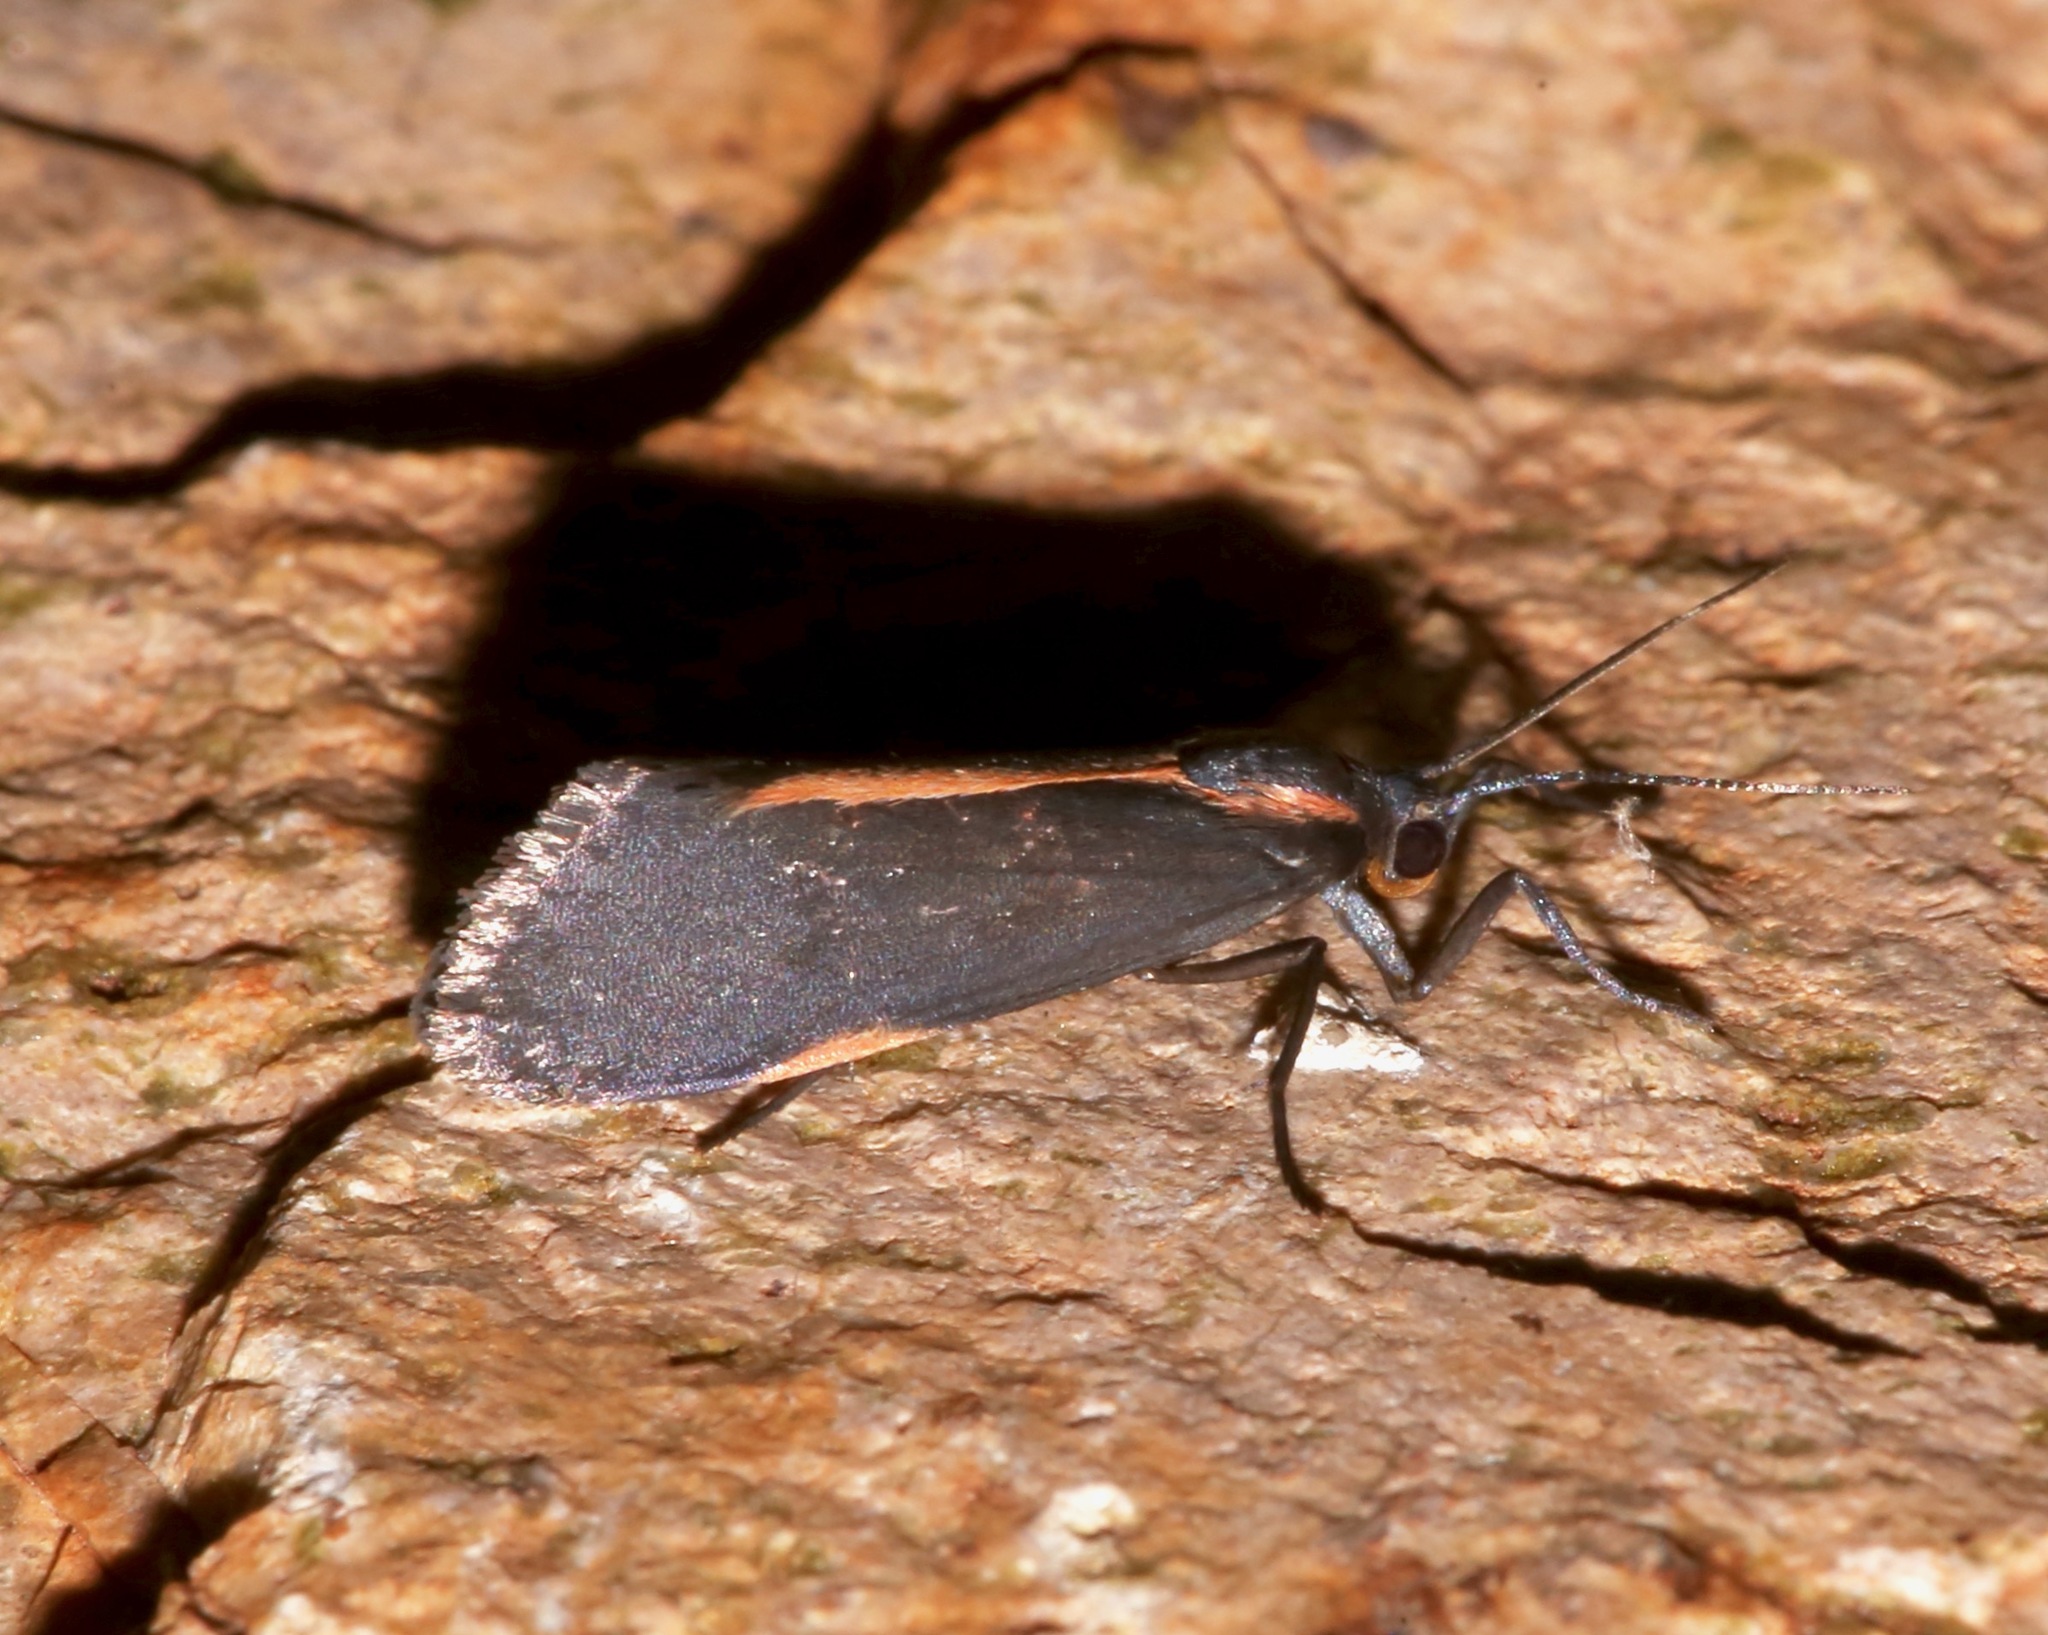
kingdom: Animalia
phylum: Arthropoda
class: Insecta
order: Lepidoptera
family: Erebidae
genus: Cisthene
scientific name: Cisthene juanita
